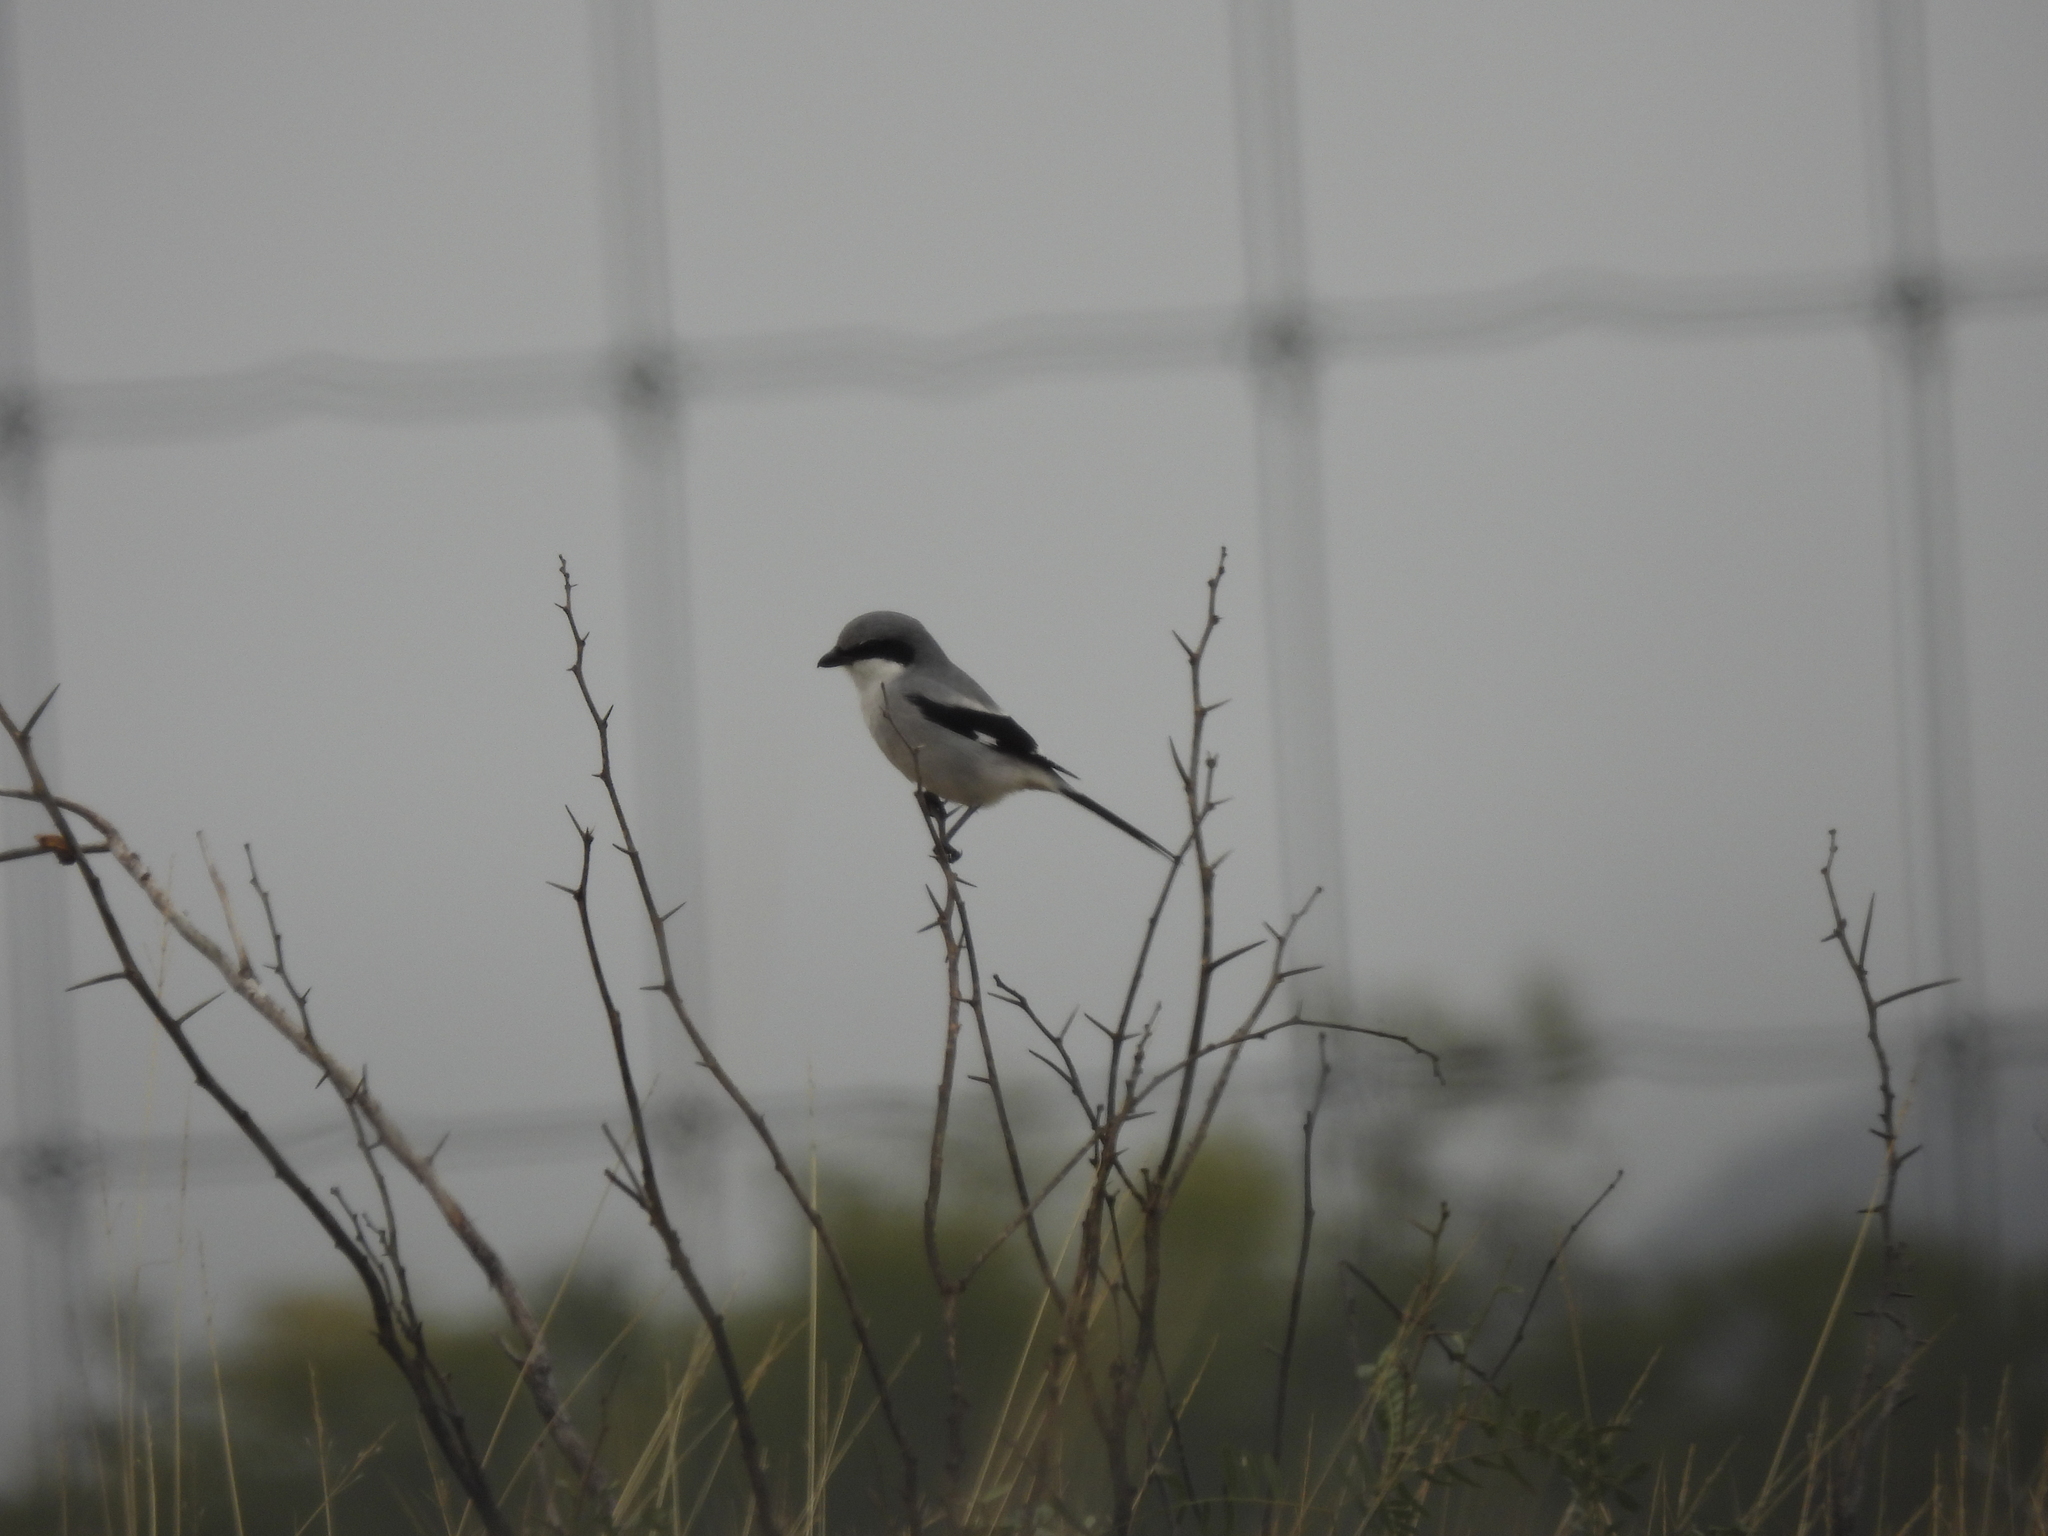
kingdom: Animalia
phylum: Chordata
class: Aves
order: Passeriformes
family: Laniidae
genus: Lanius
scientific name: Lanius ludovicianus
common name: Loggerhead shrike
